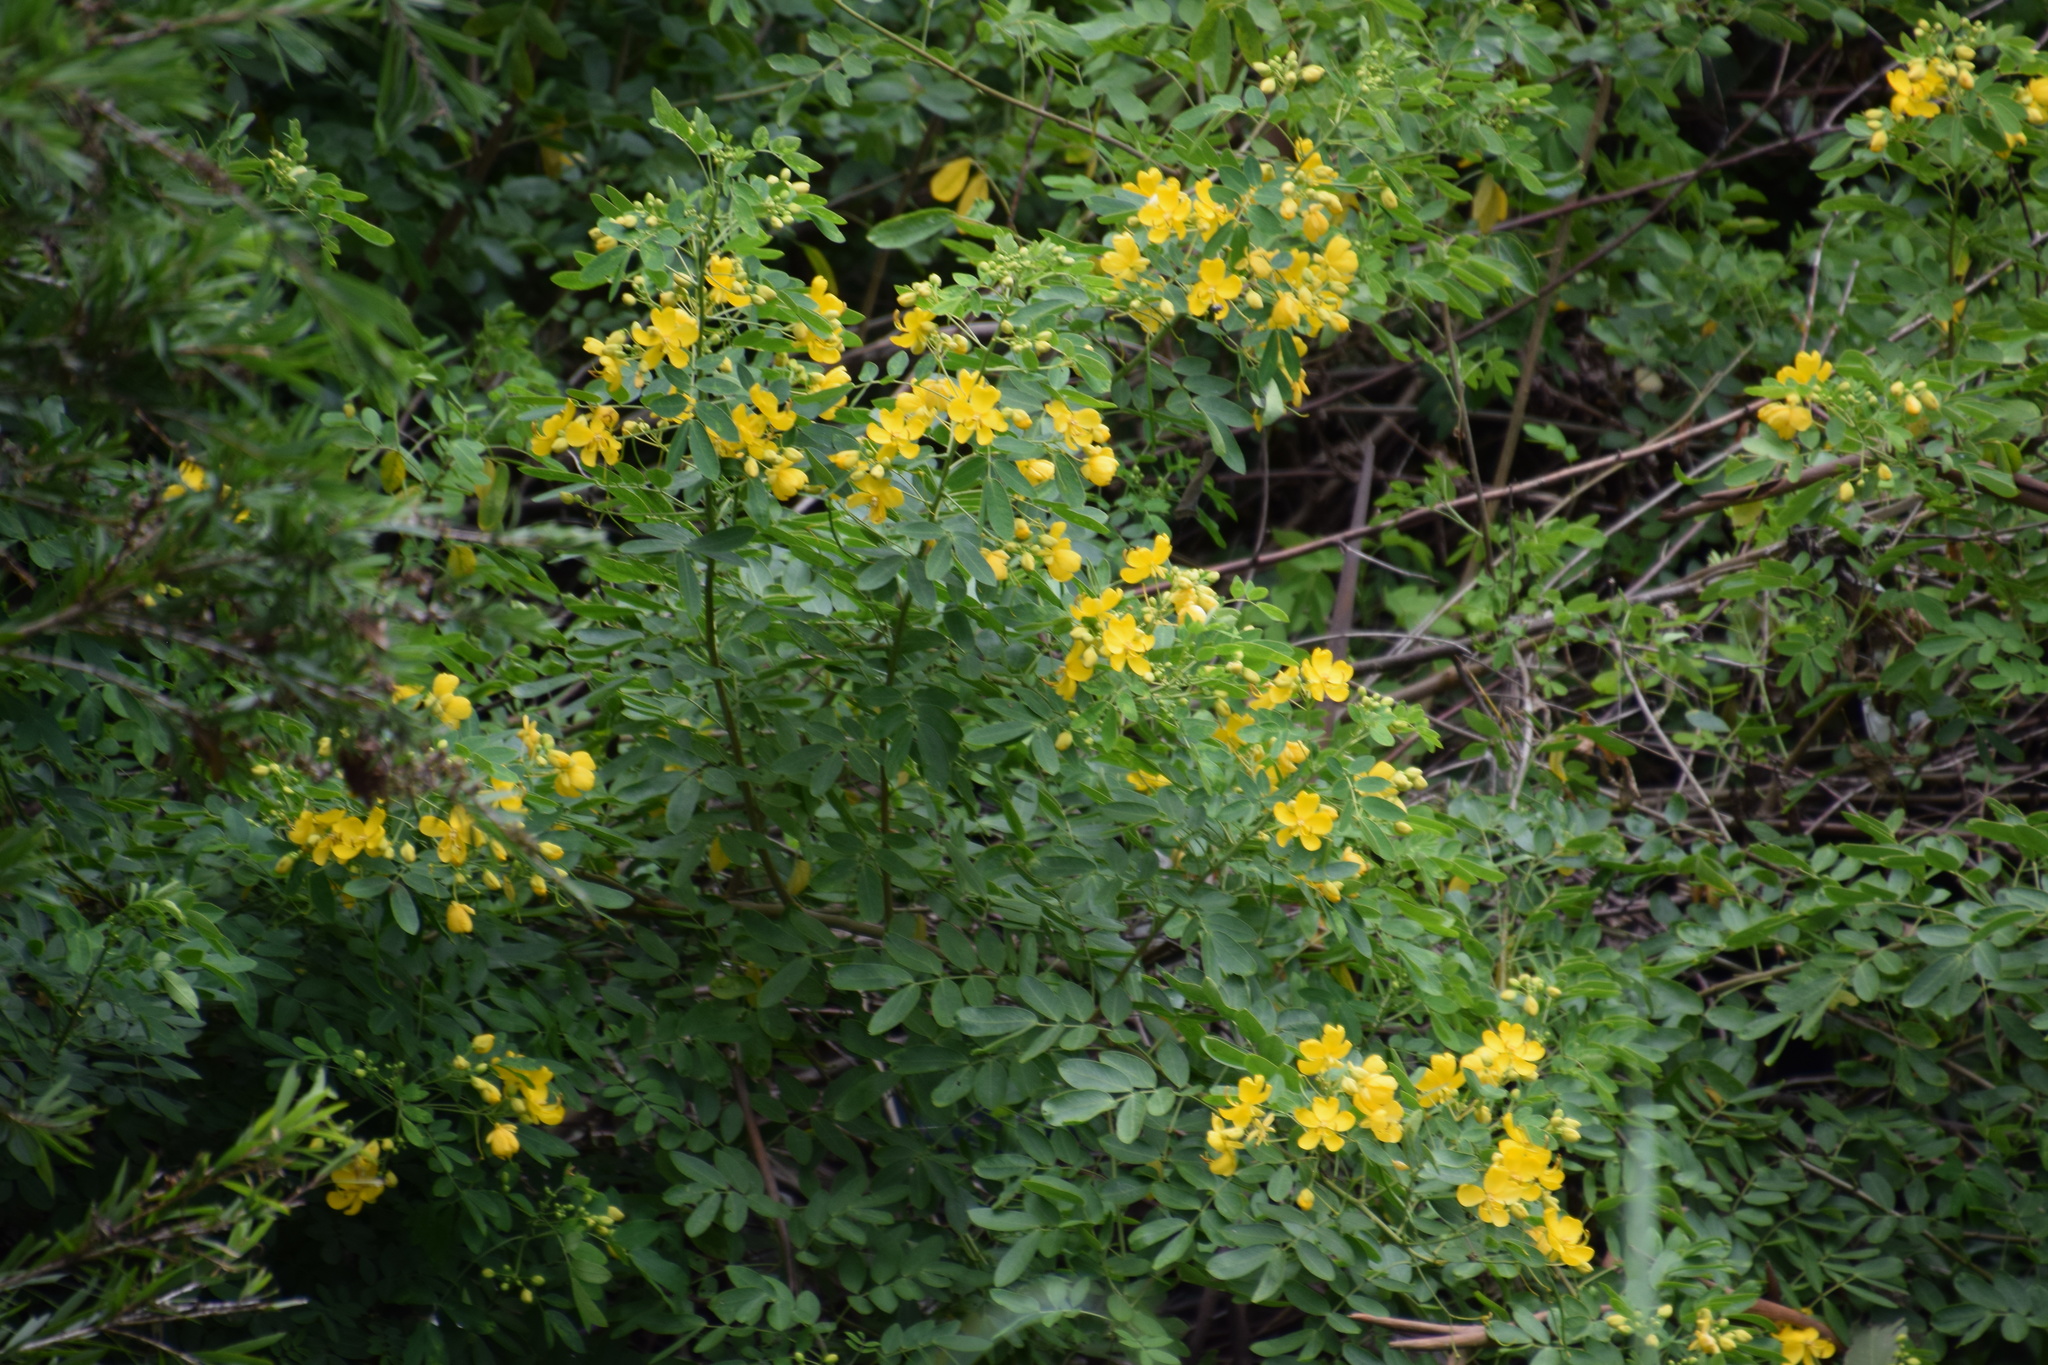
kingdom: Plantae
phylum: Tracheophyta
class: Magnoliopsida
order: Fabales
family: Fabaceae
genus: Senna
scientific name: Senna pendula
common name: Easter cassia
